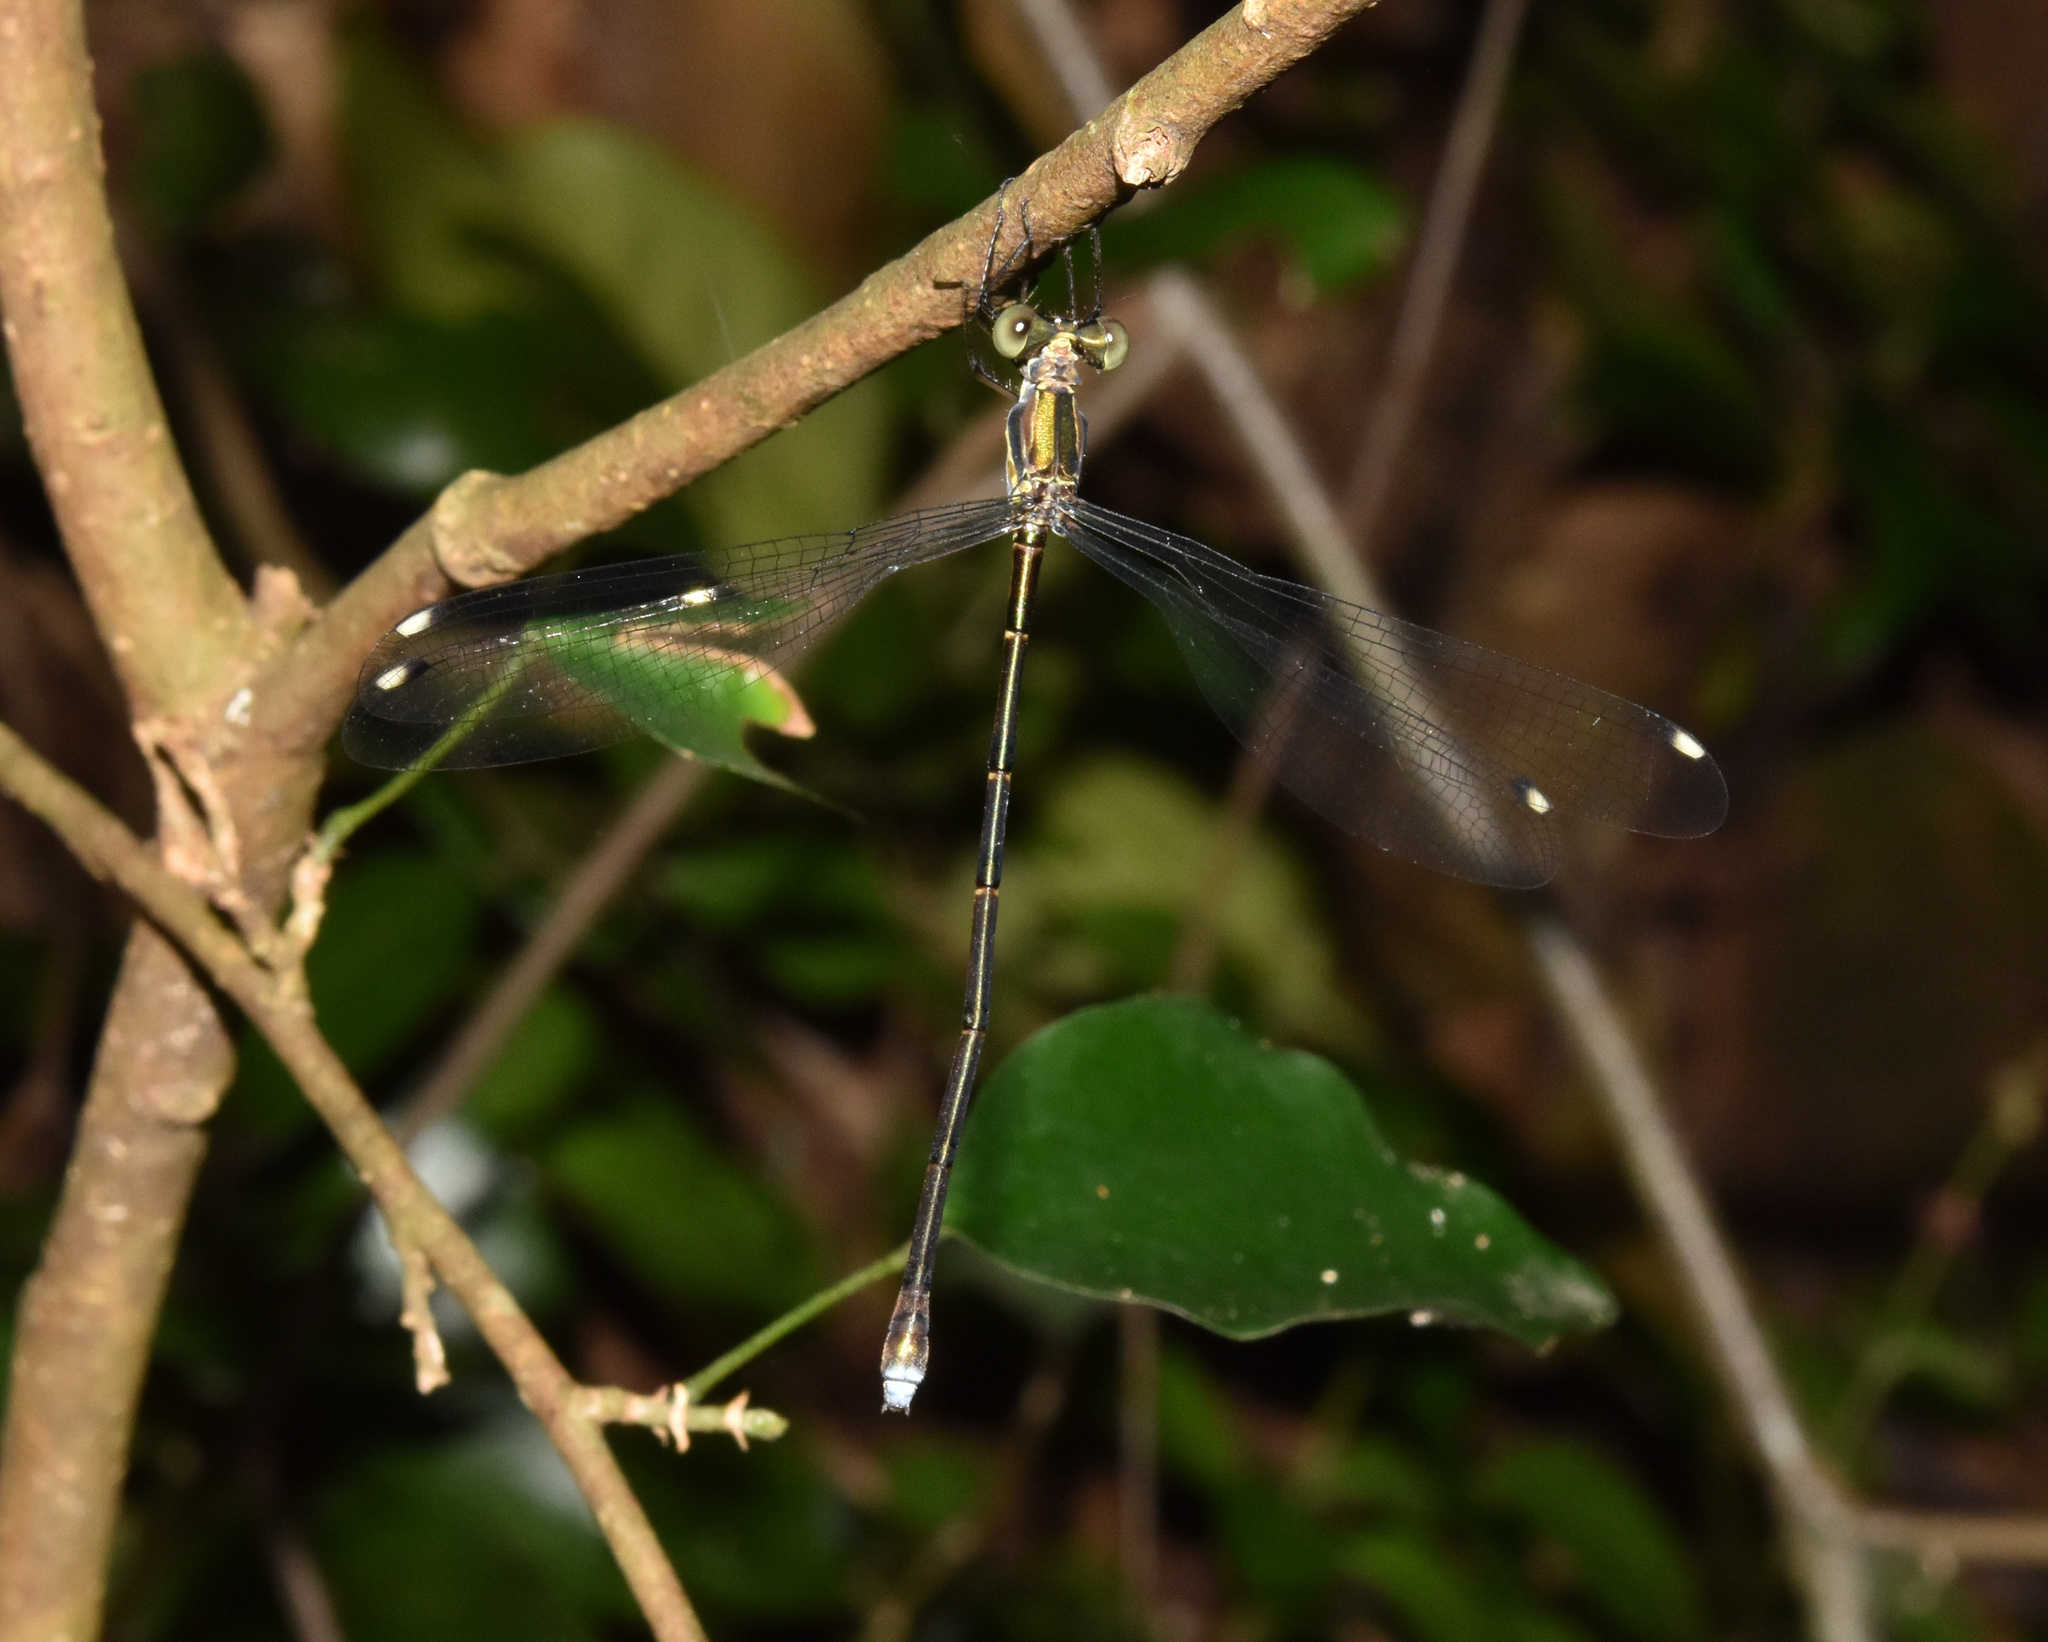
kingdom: Animalia
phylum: Arthropoda
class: Insecta
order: Odonata
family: Synlestidae
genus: Chlorolestes
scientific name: Chlorolestes tessellatus
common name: Forest malachite
